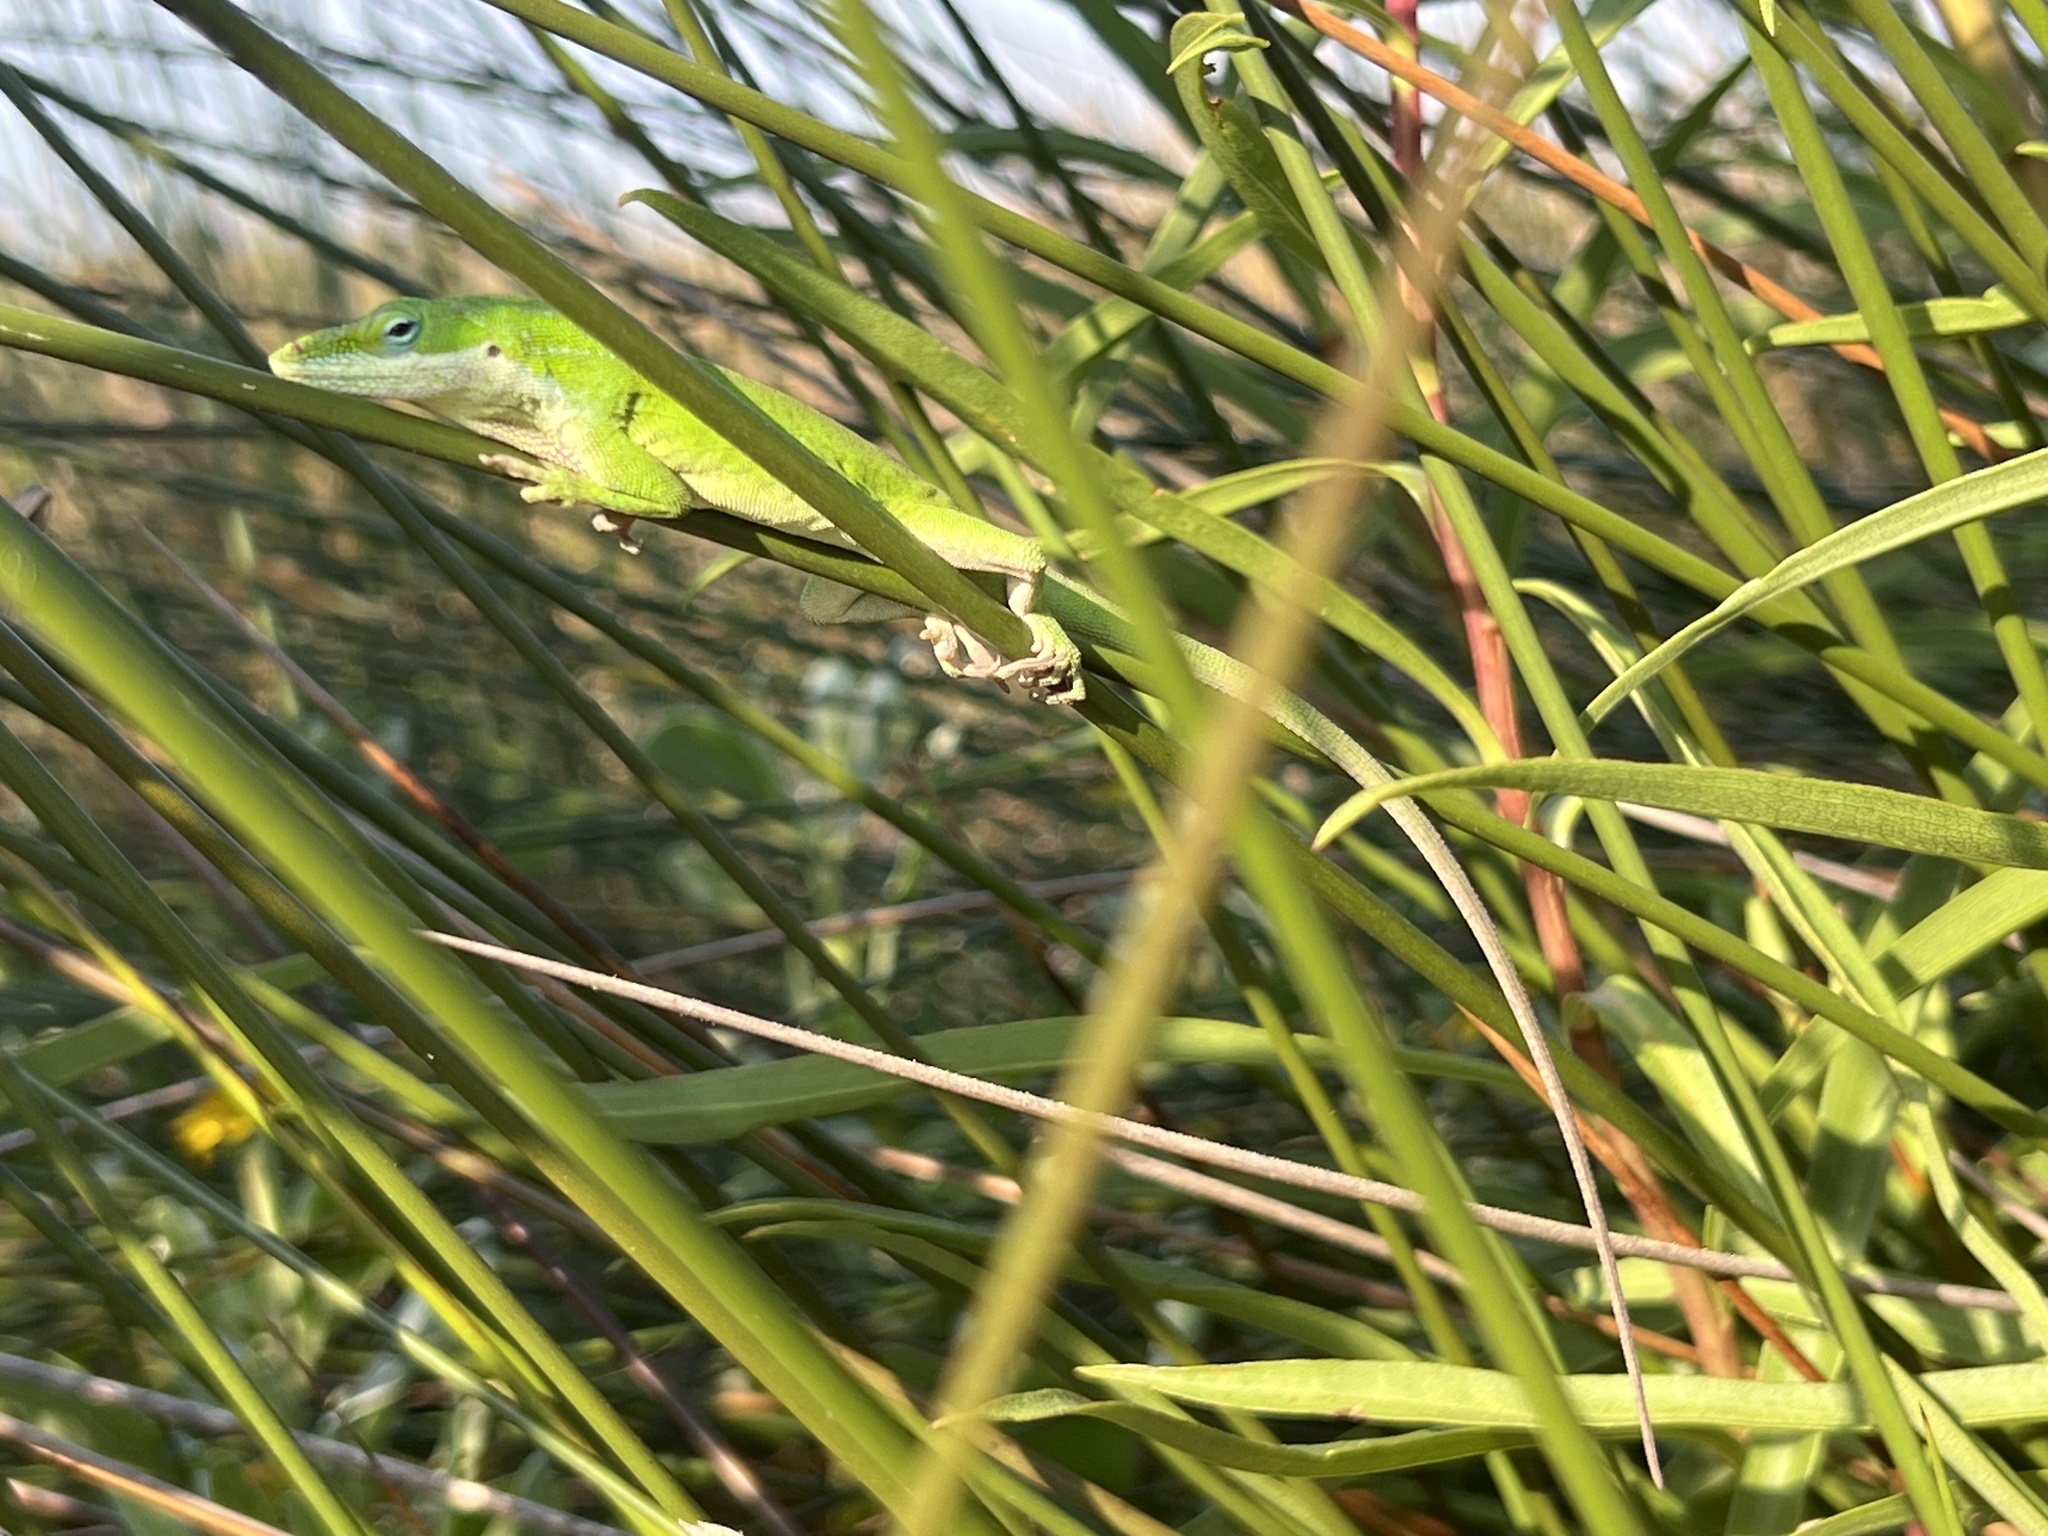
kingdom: Animalia
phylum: Chordata
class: Squamata
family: Dactyloidae
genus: Anolis
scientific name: Anolis carolinensis
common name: Green anole
